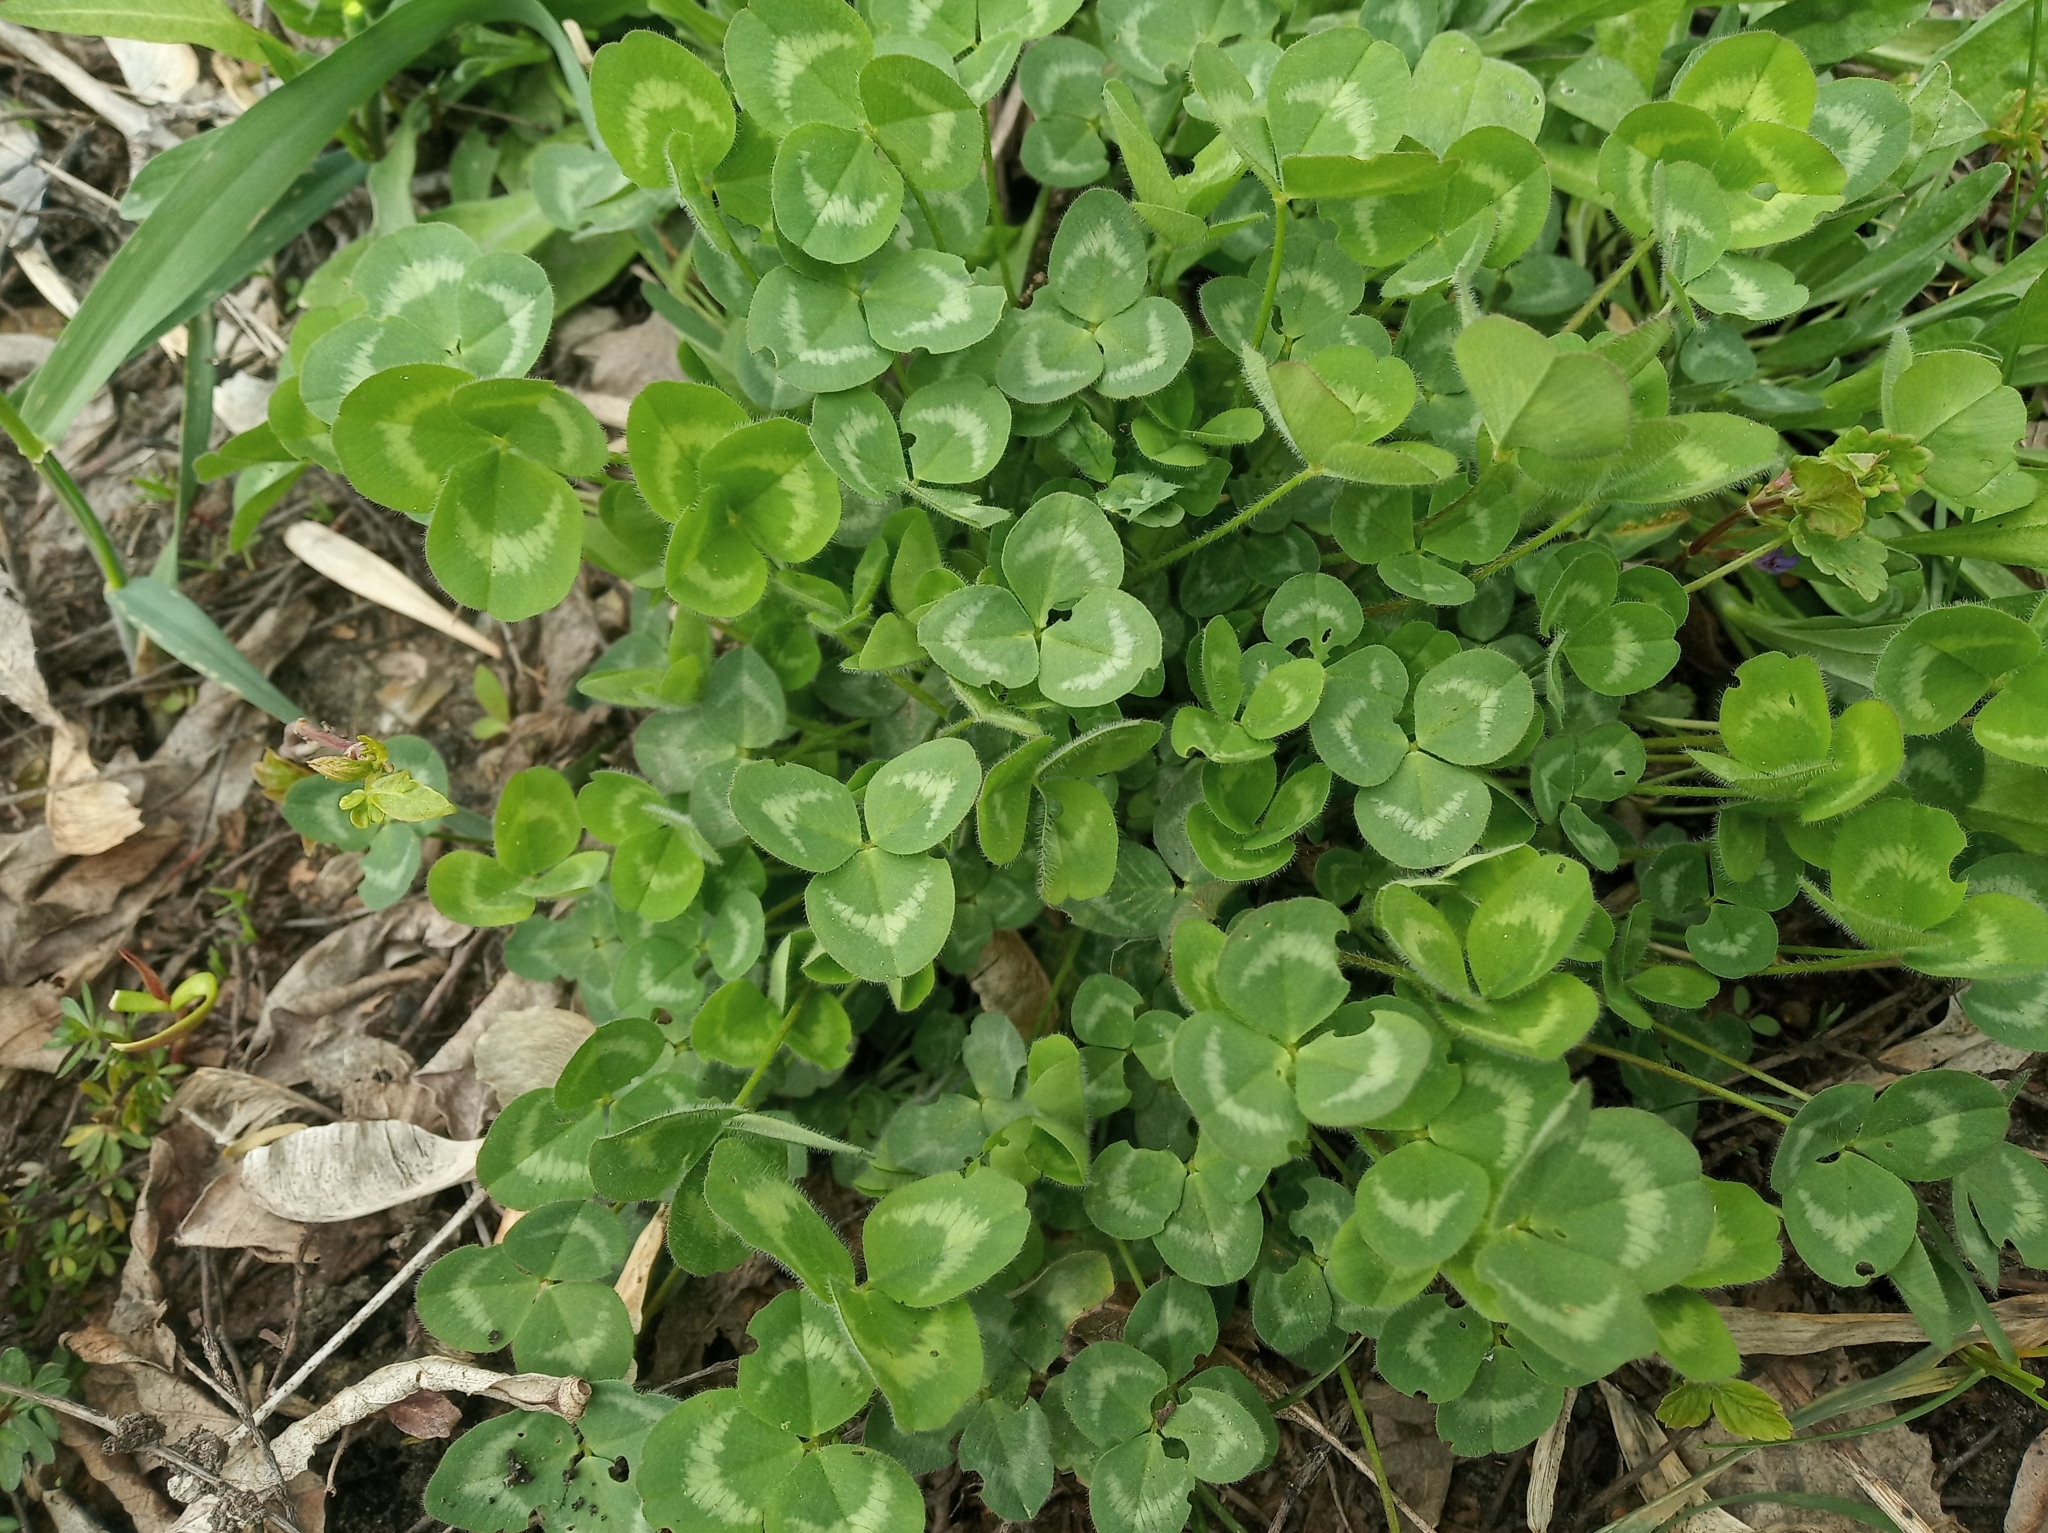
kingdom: Plantae
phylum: Tracheophyta
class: Magnoliopsida
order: Fabales
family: Fabaceae
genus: Trifolium
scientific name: Trifolium pratense
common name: Red clover
